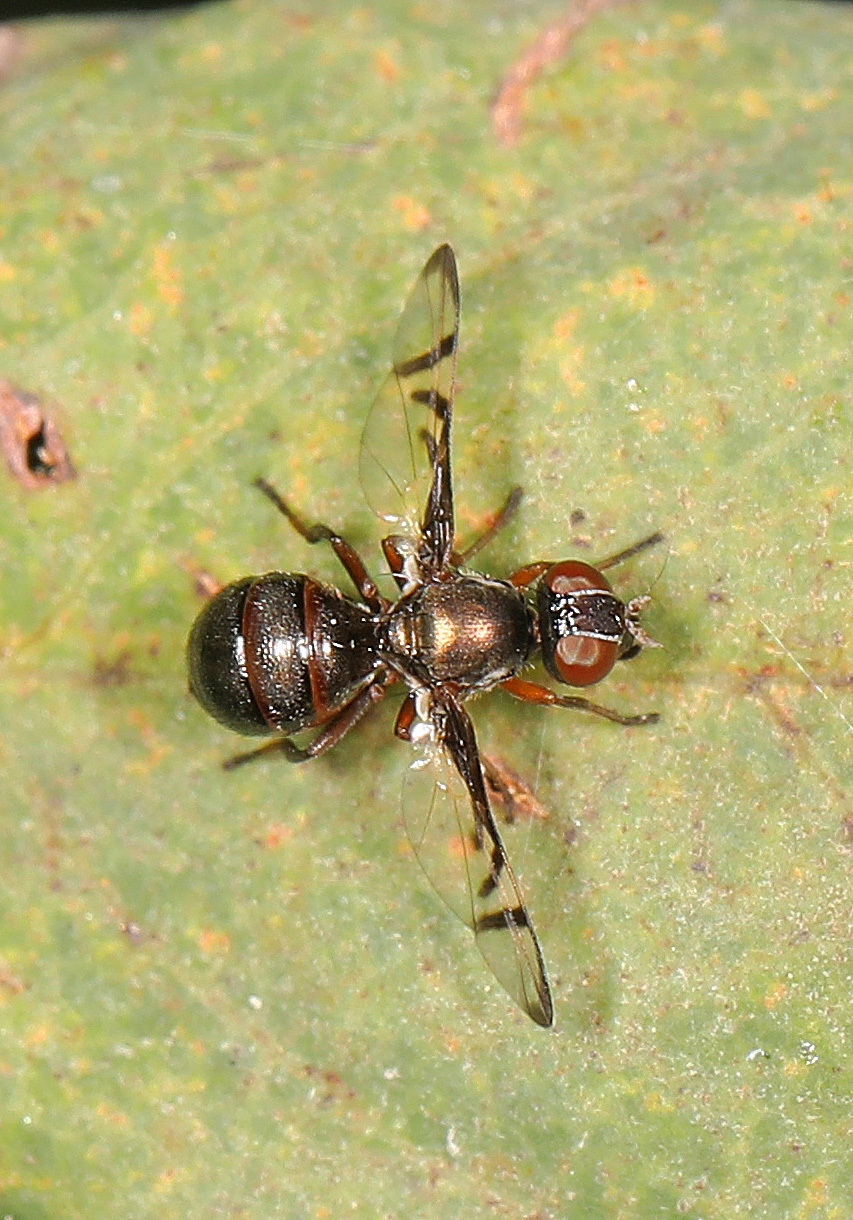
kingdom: Animalia
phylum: Arthropoda
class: Insecta
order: Diptera
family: Platystomatidae
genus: Rivellia
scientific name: Rivellia
